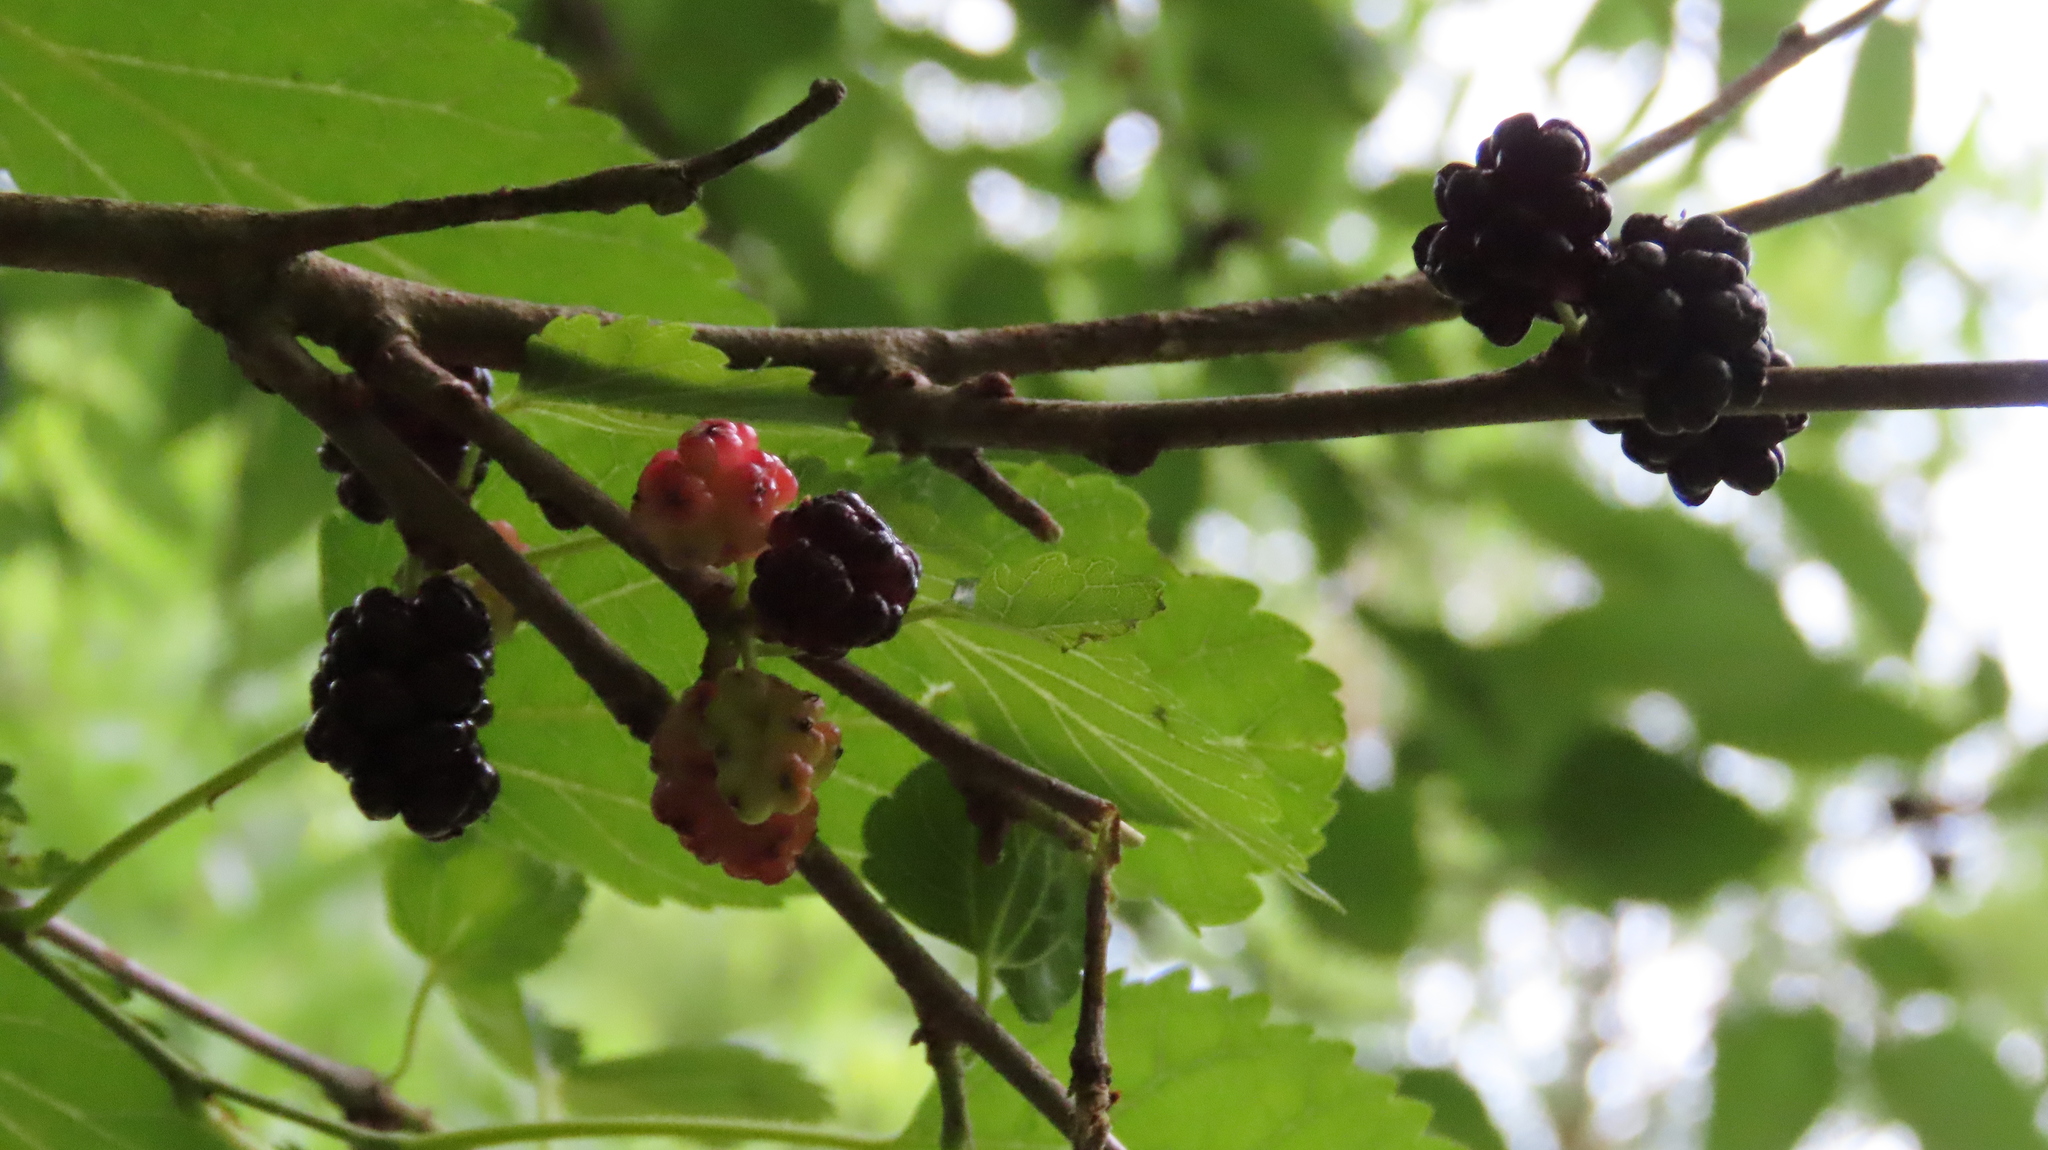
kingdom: Plantae
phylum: Tracheophyta
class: Magnoliopsida
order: Rosales
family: Moraceae
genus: Morus
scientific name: Morus alba
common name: White mulberry
